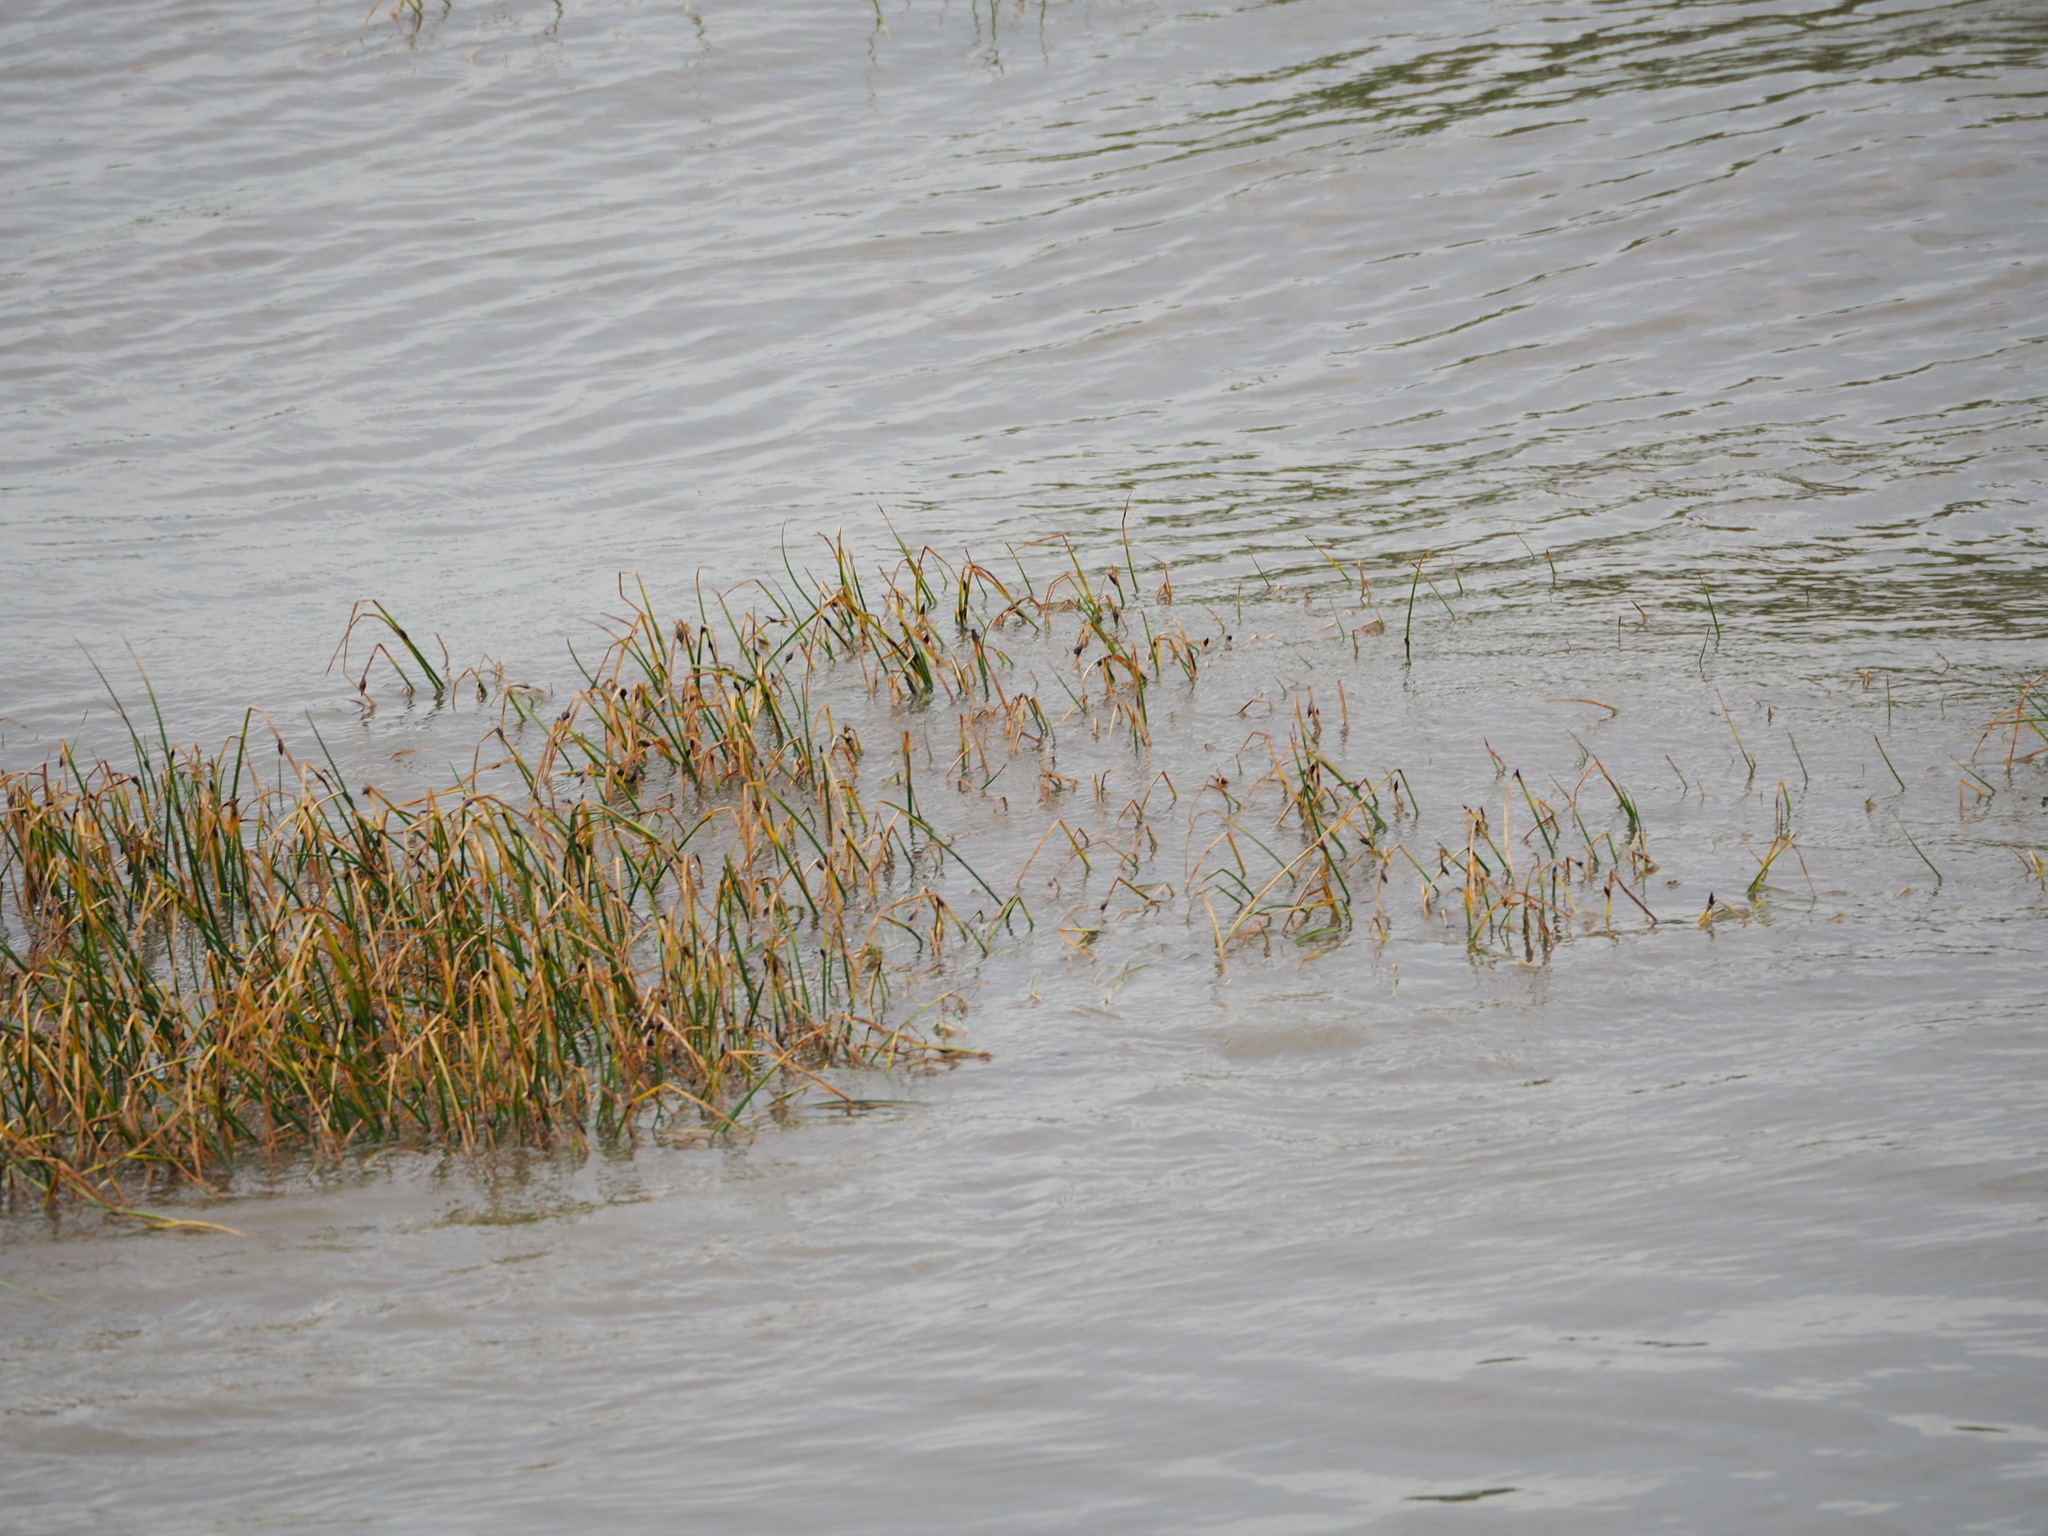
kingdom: Plantae
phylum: Tracheophyta
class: Liliopsida
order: Poales
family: Cyperaceae
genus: Bolboschoenus
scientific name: Bolboschoenus planiculmis
